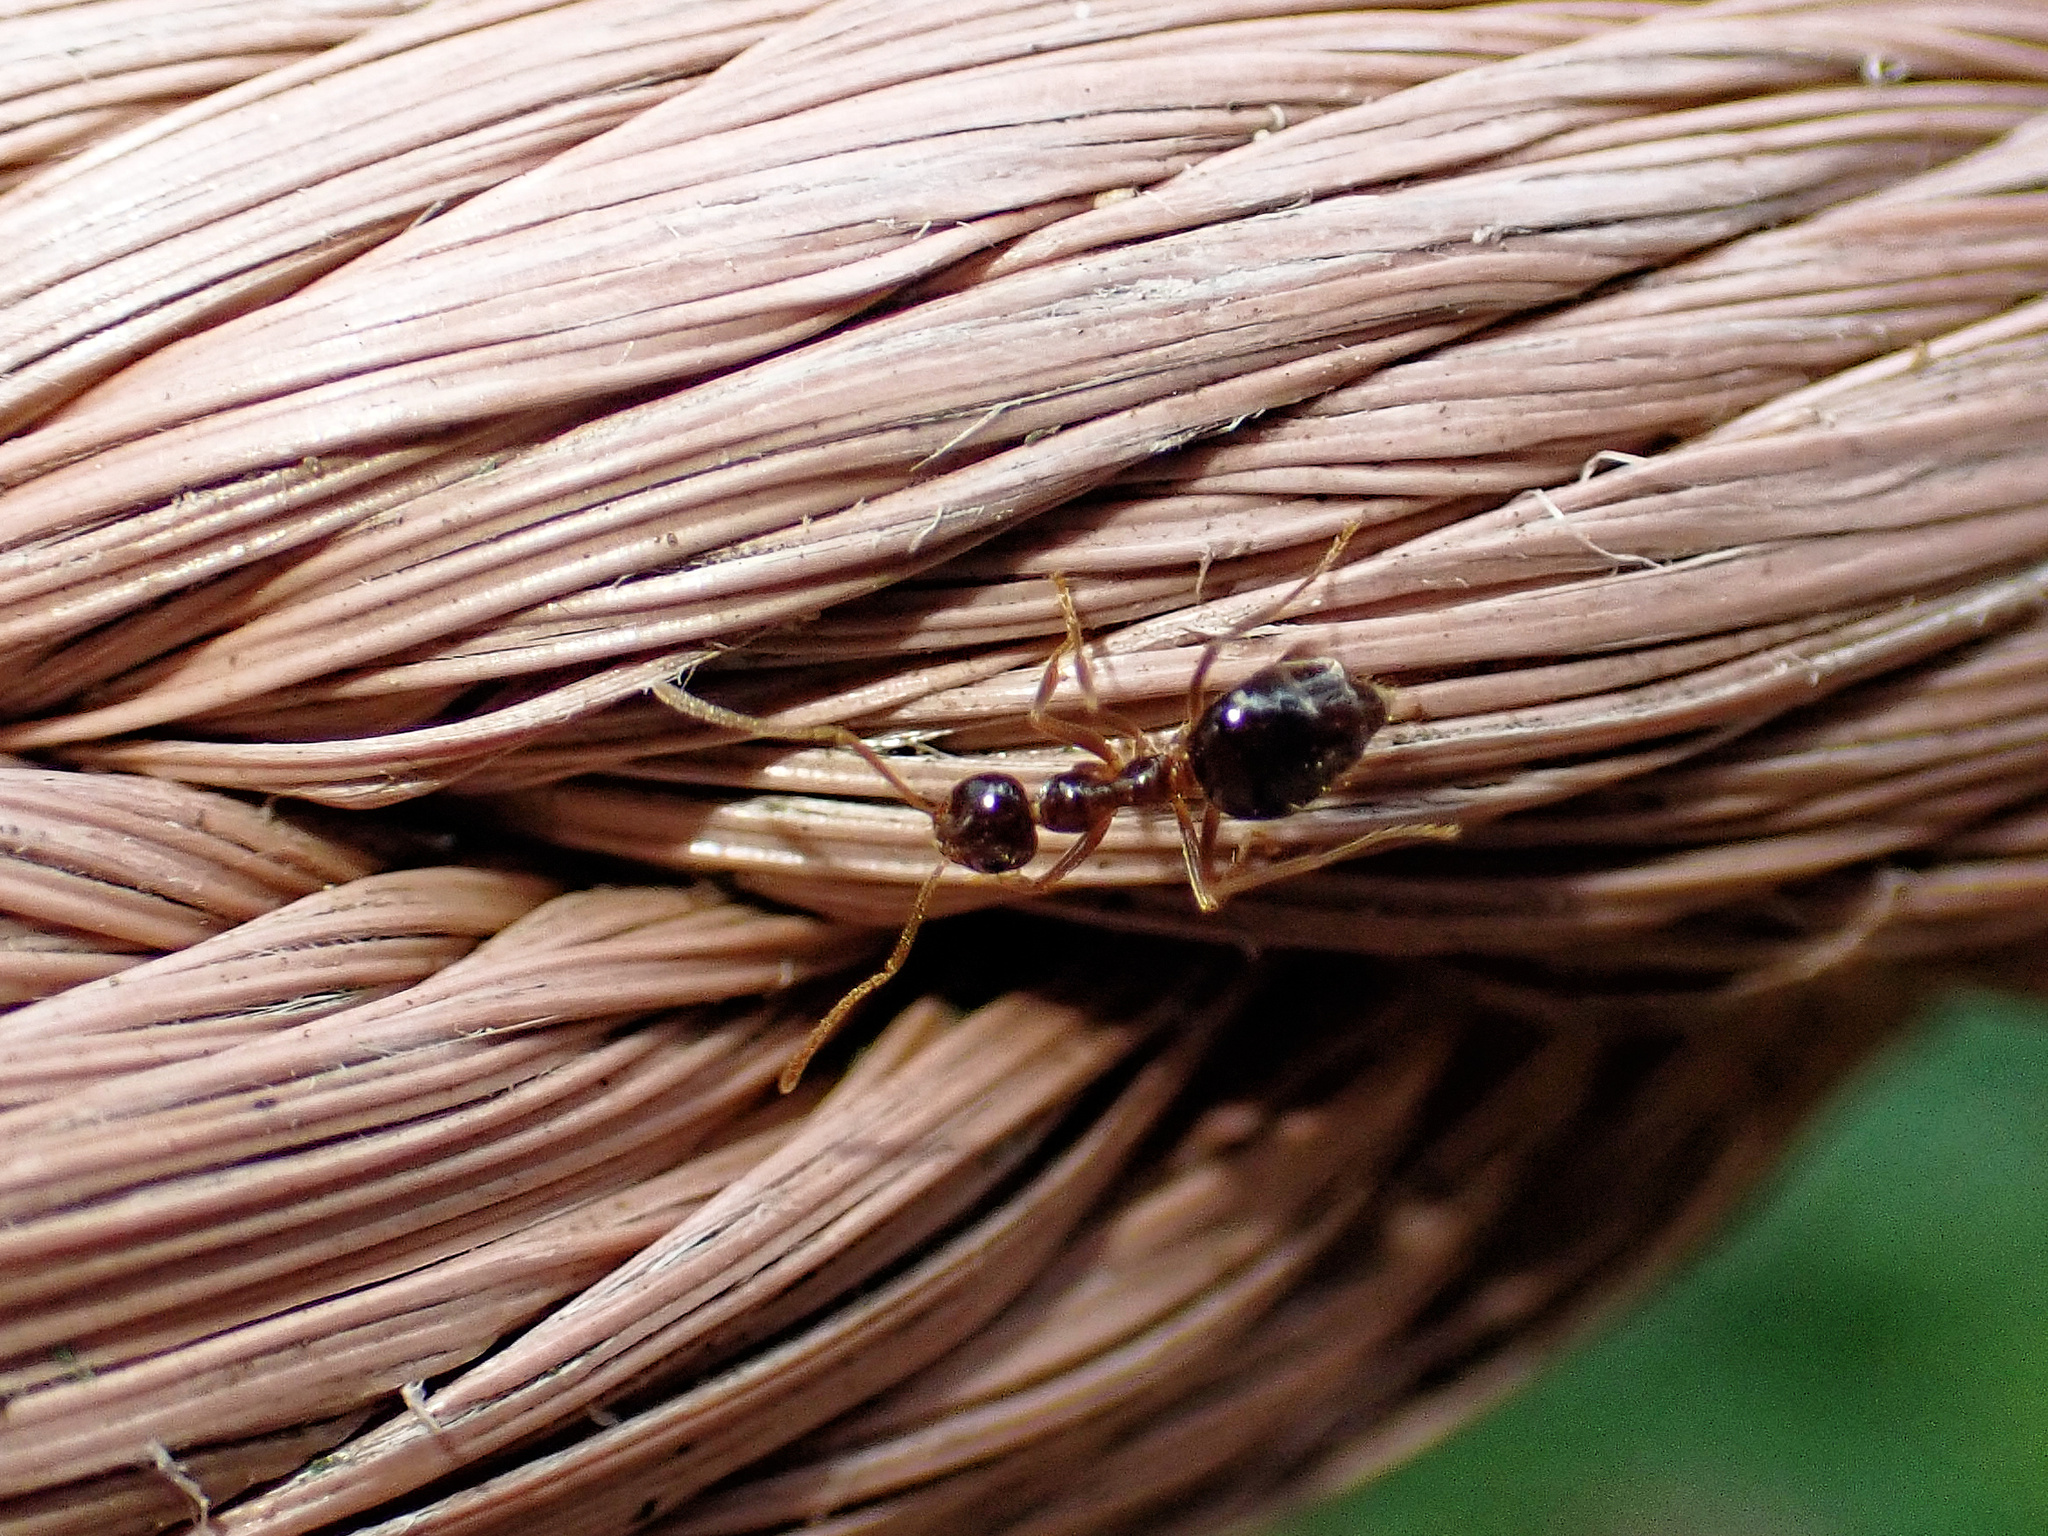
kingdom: Animalia
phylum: Arthropoda
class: Insecta
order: Hymenoptera
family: Formicidae
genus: Prenolepis
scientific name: Prenolepis imparis
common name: Small honey ant
